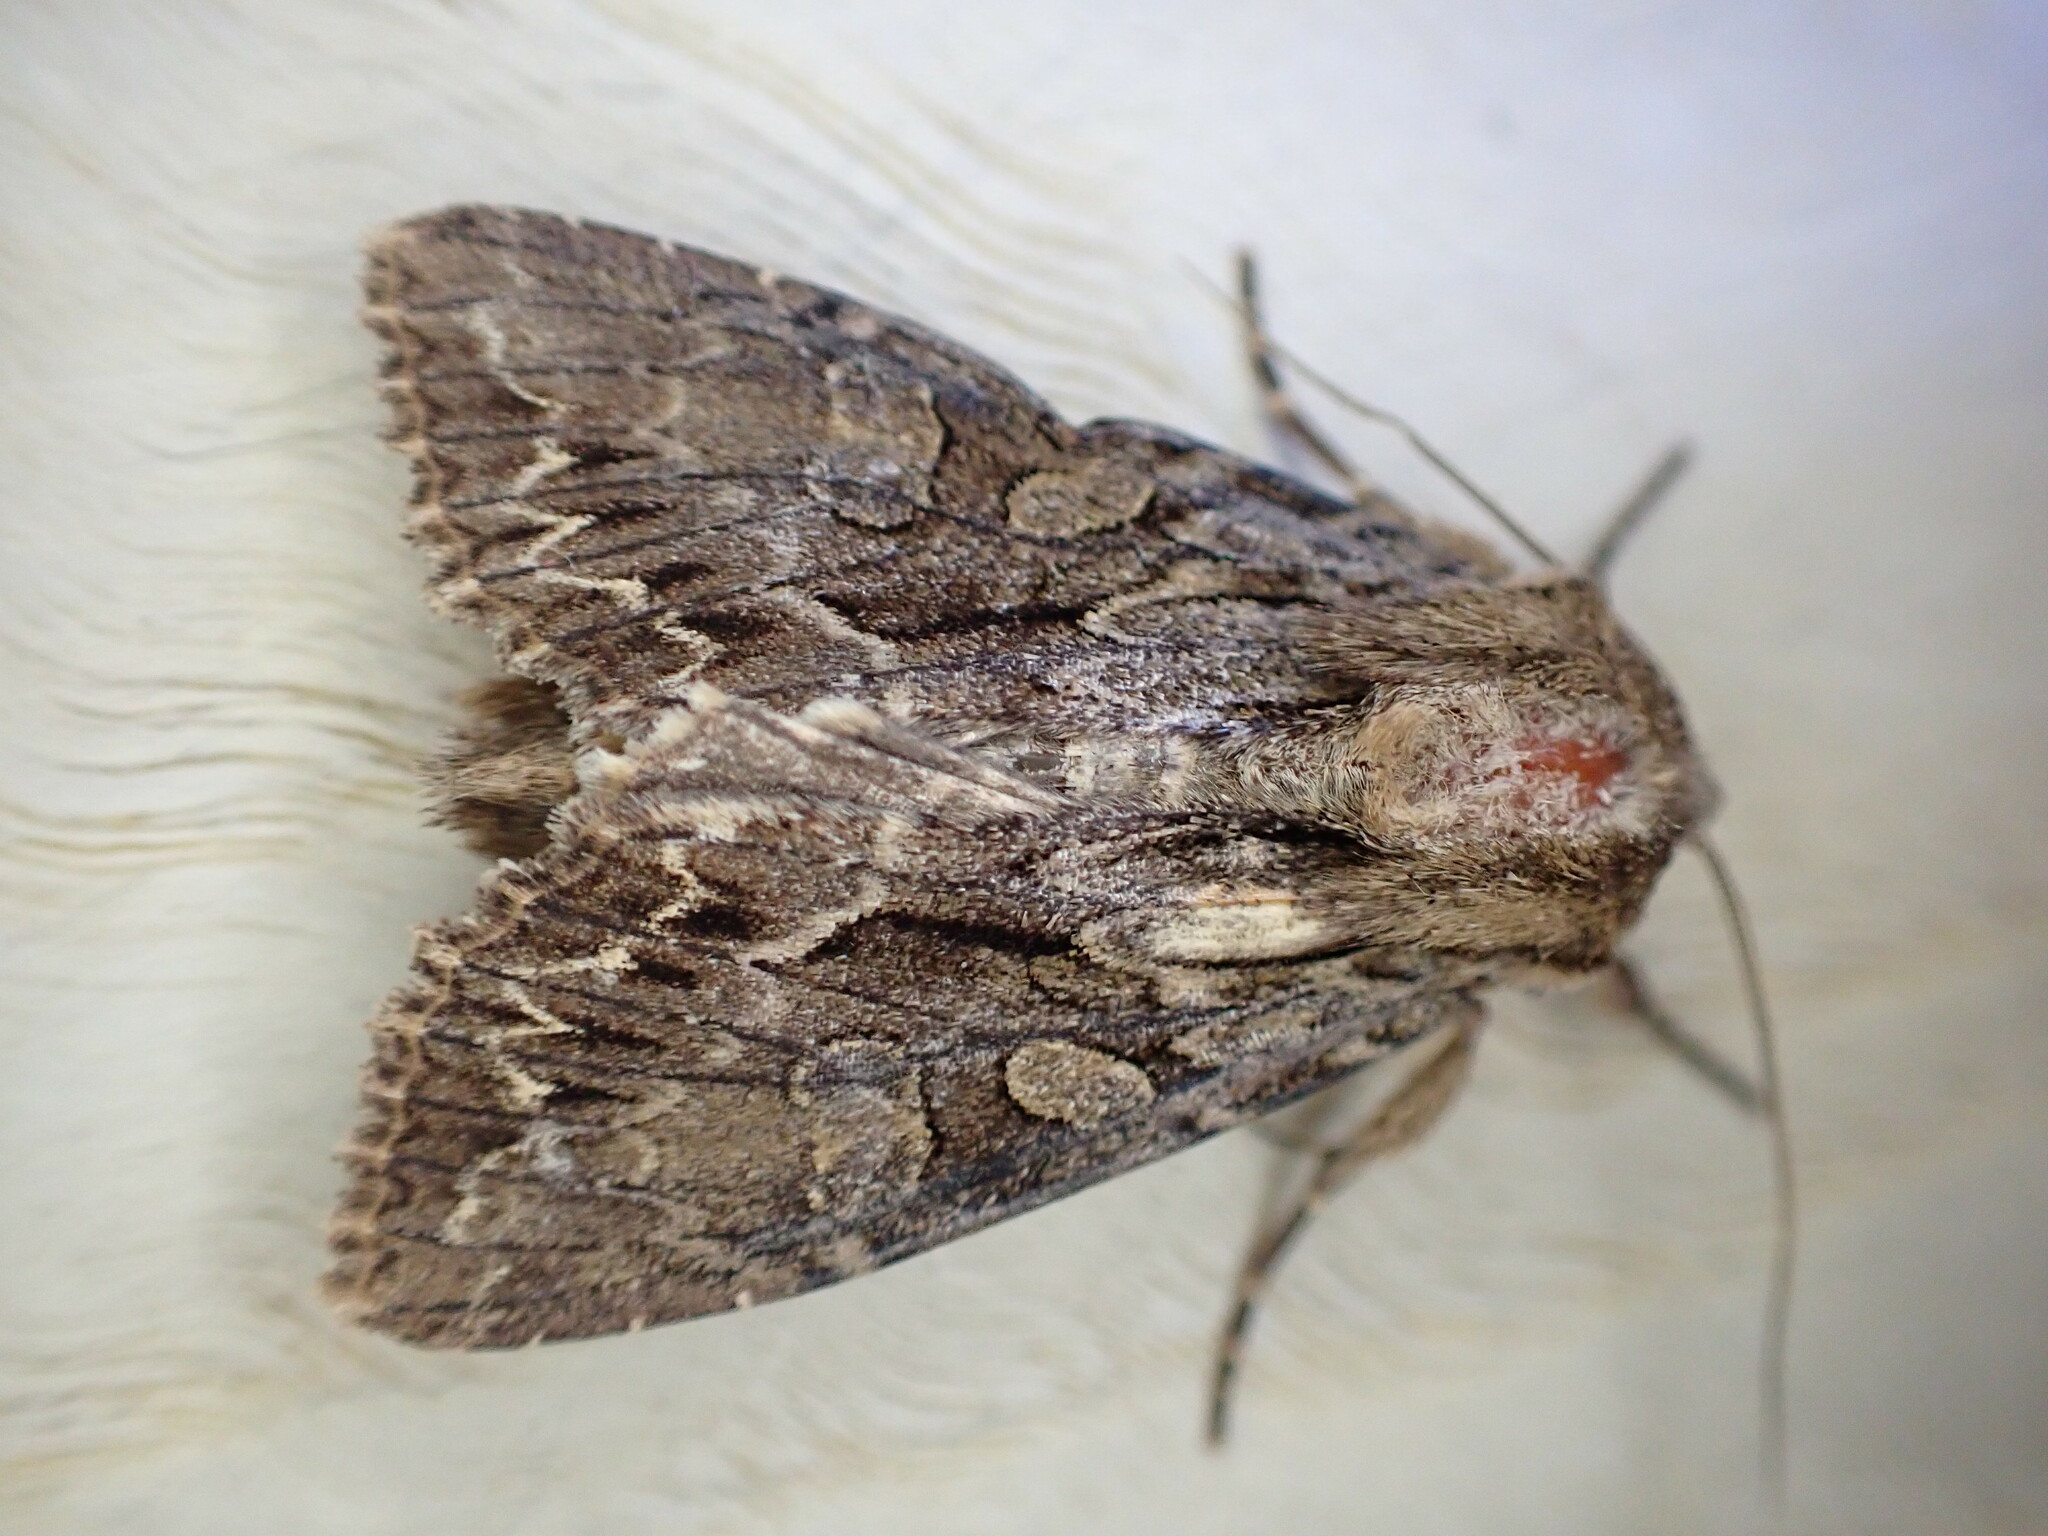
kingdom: Animalia
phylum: Arthropoda
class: Insecta
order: Lepidoptera
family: Noctuidae
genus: Apamea
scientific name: Apamea monoglypha
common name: Dark arches
